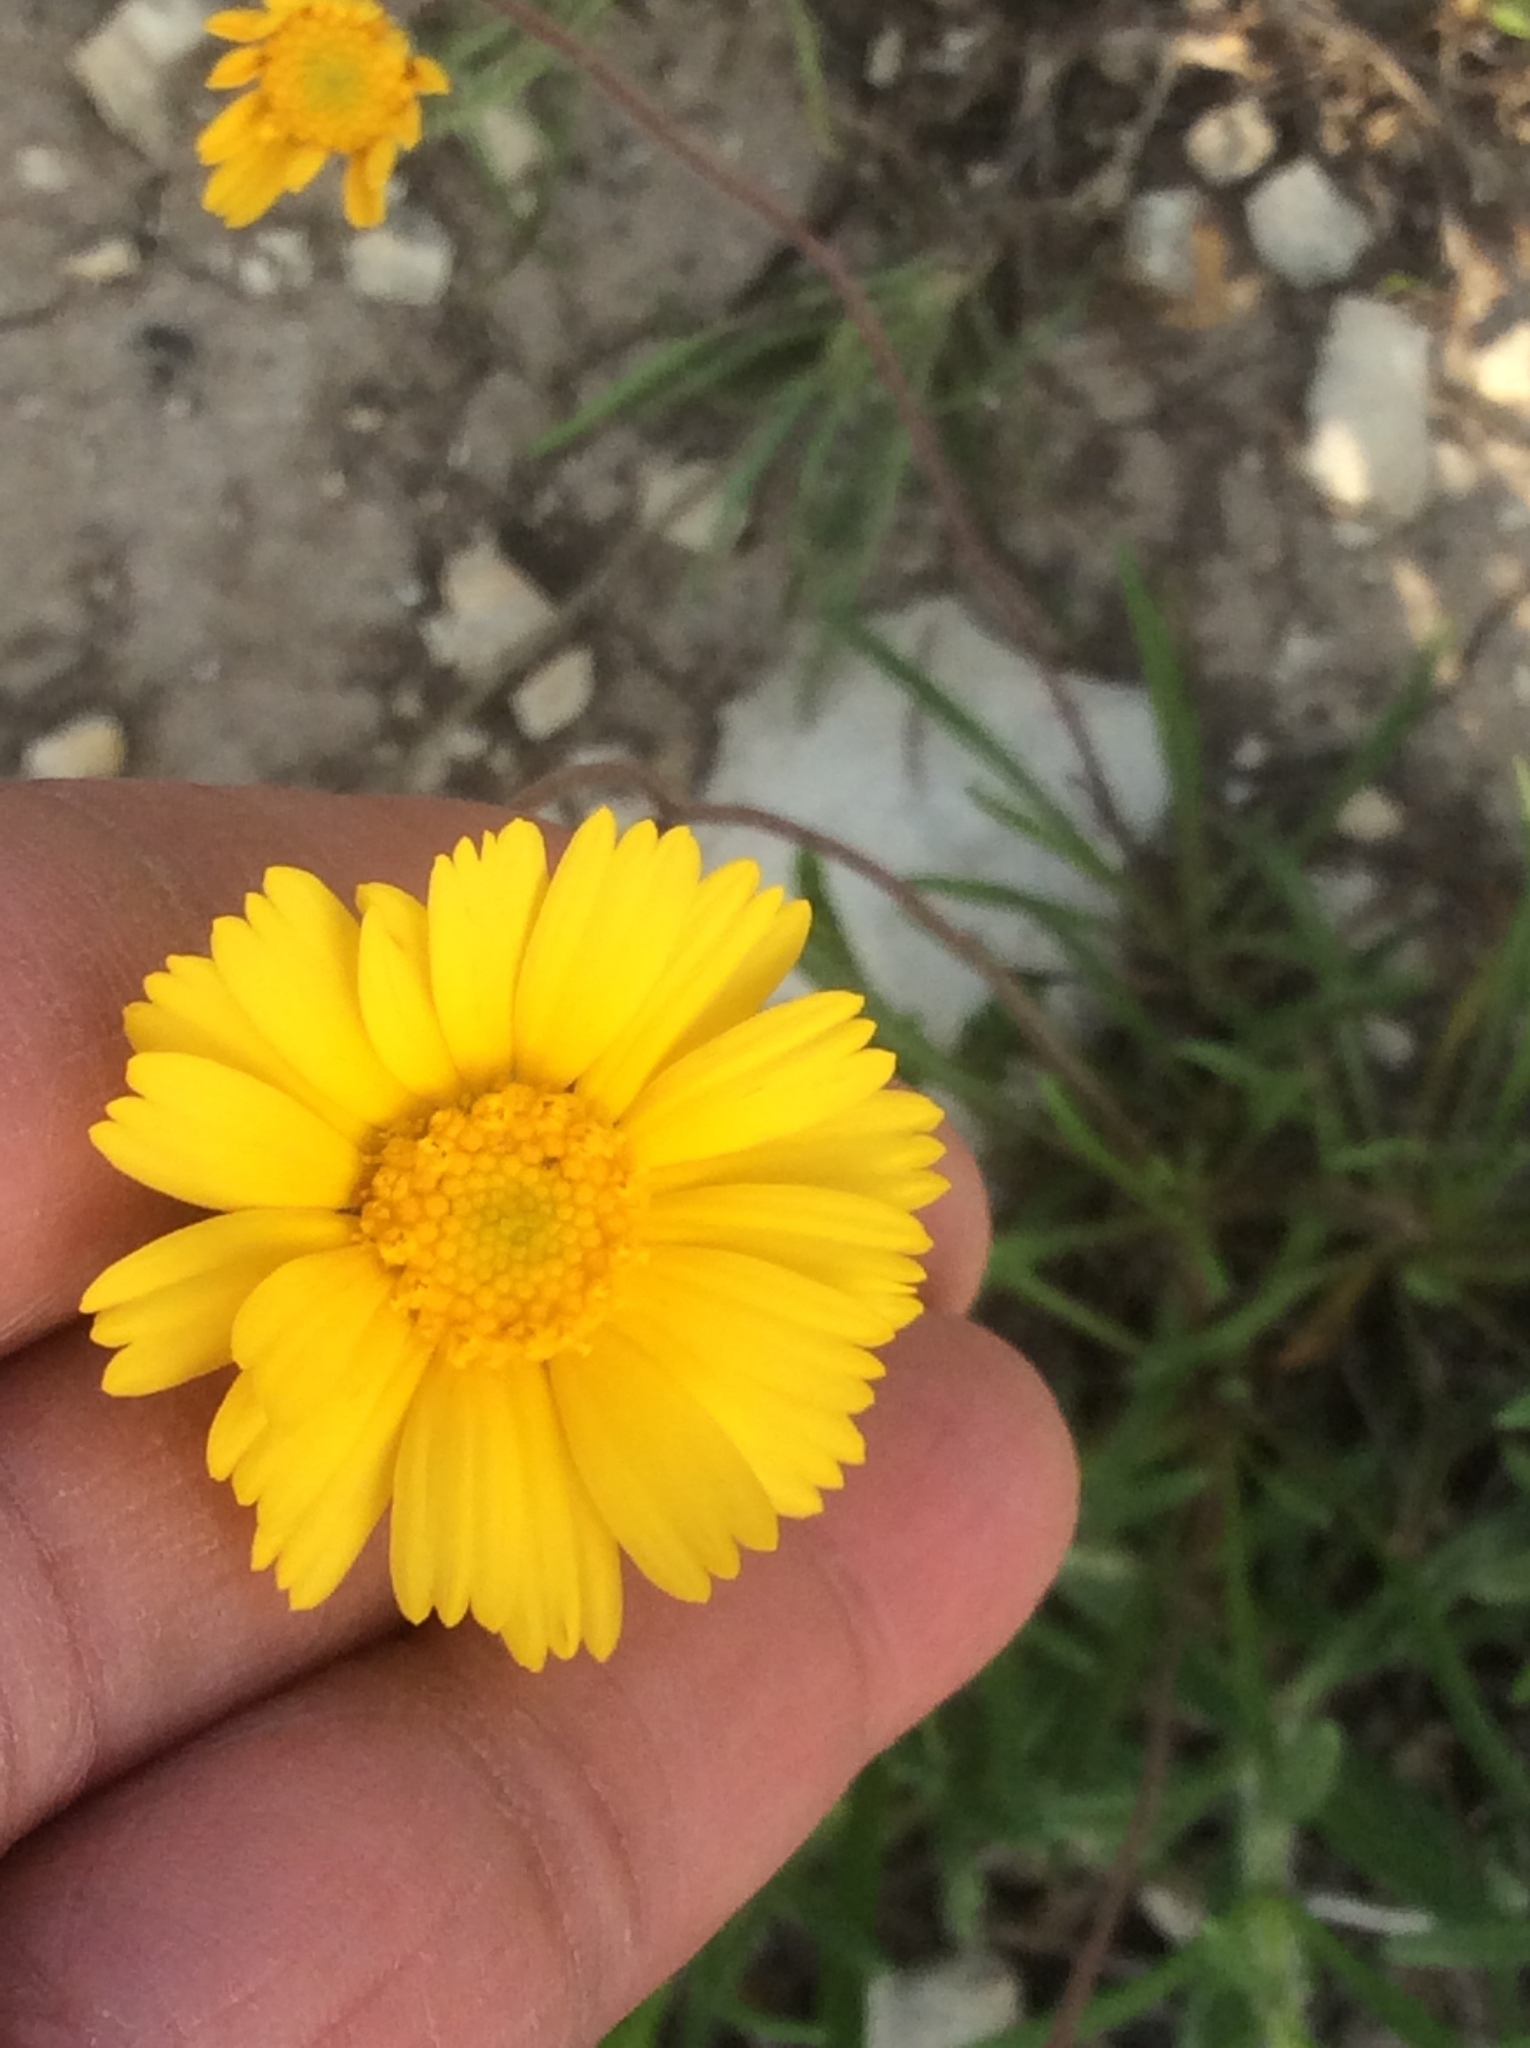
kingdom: Plantae
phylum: Tracheophyta
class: Magnoliopsida
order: Asterales
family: Asteraceae
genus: Tetraneuris
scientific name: Tetraneuris scaposa
